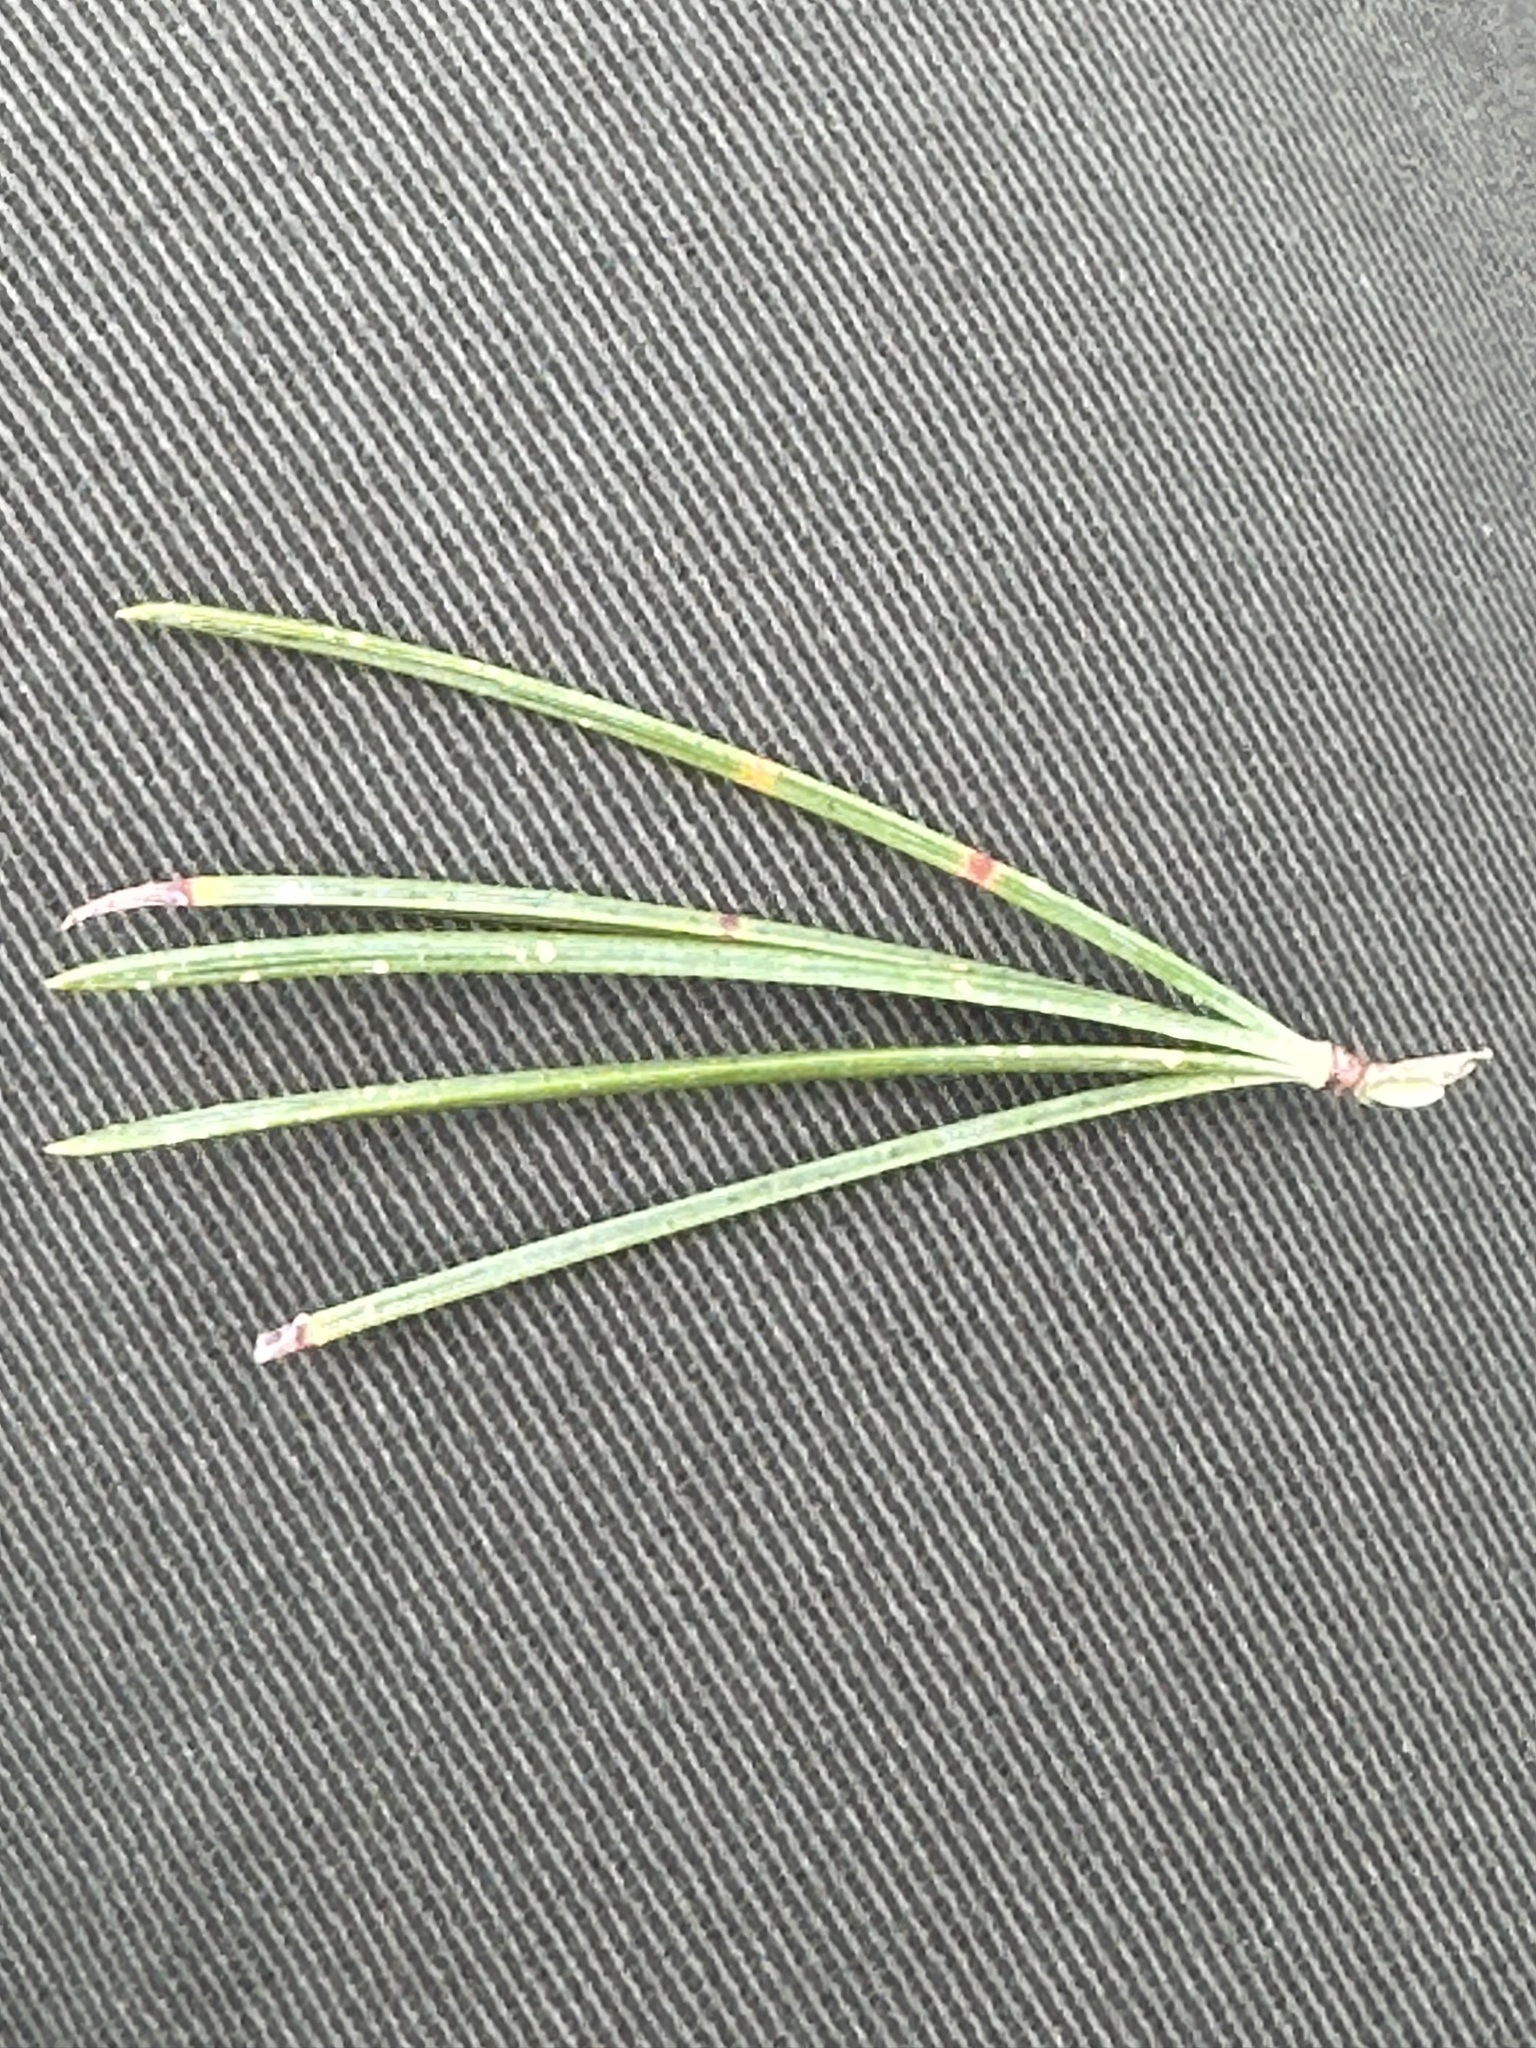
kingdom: Plantae
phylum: Tracheophyta
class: Pinopsida
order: Pinales
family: Pinaceae
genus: Pinus
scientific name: Pinus albicaulis
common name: Whitebark pine
